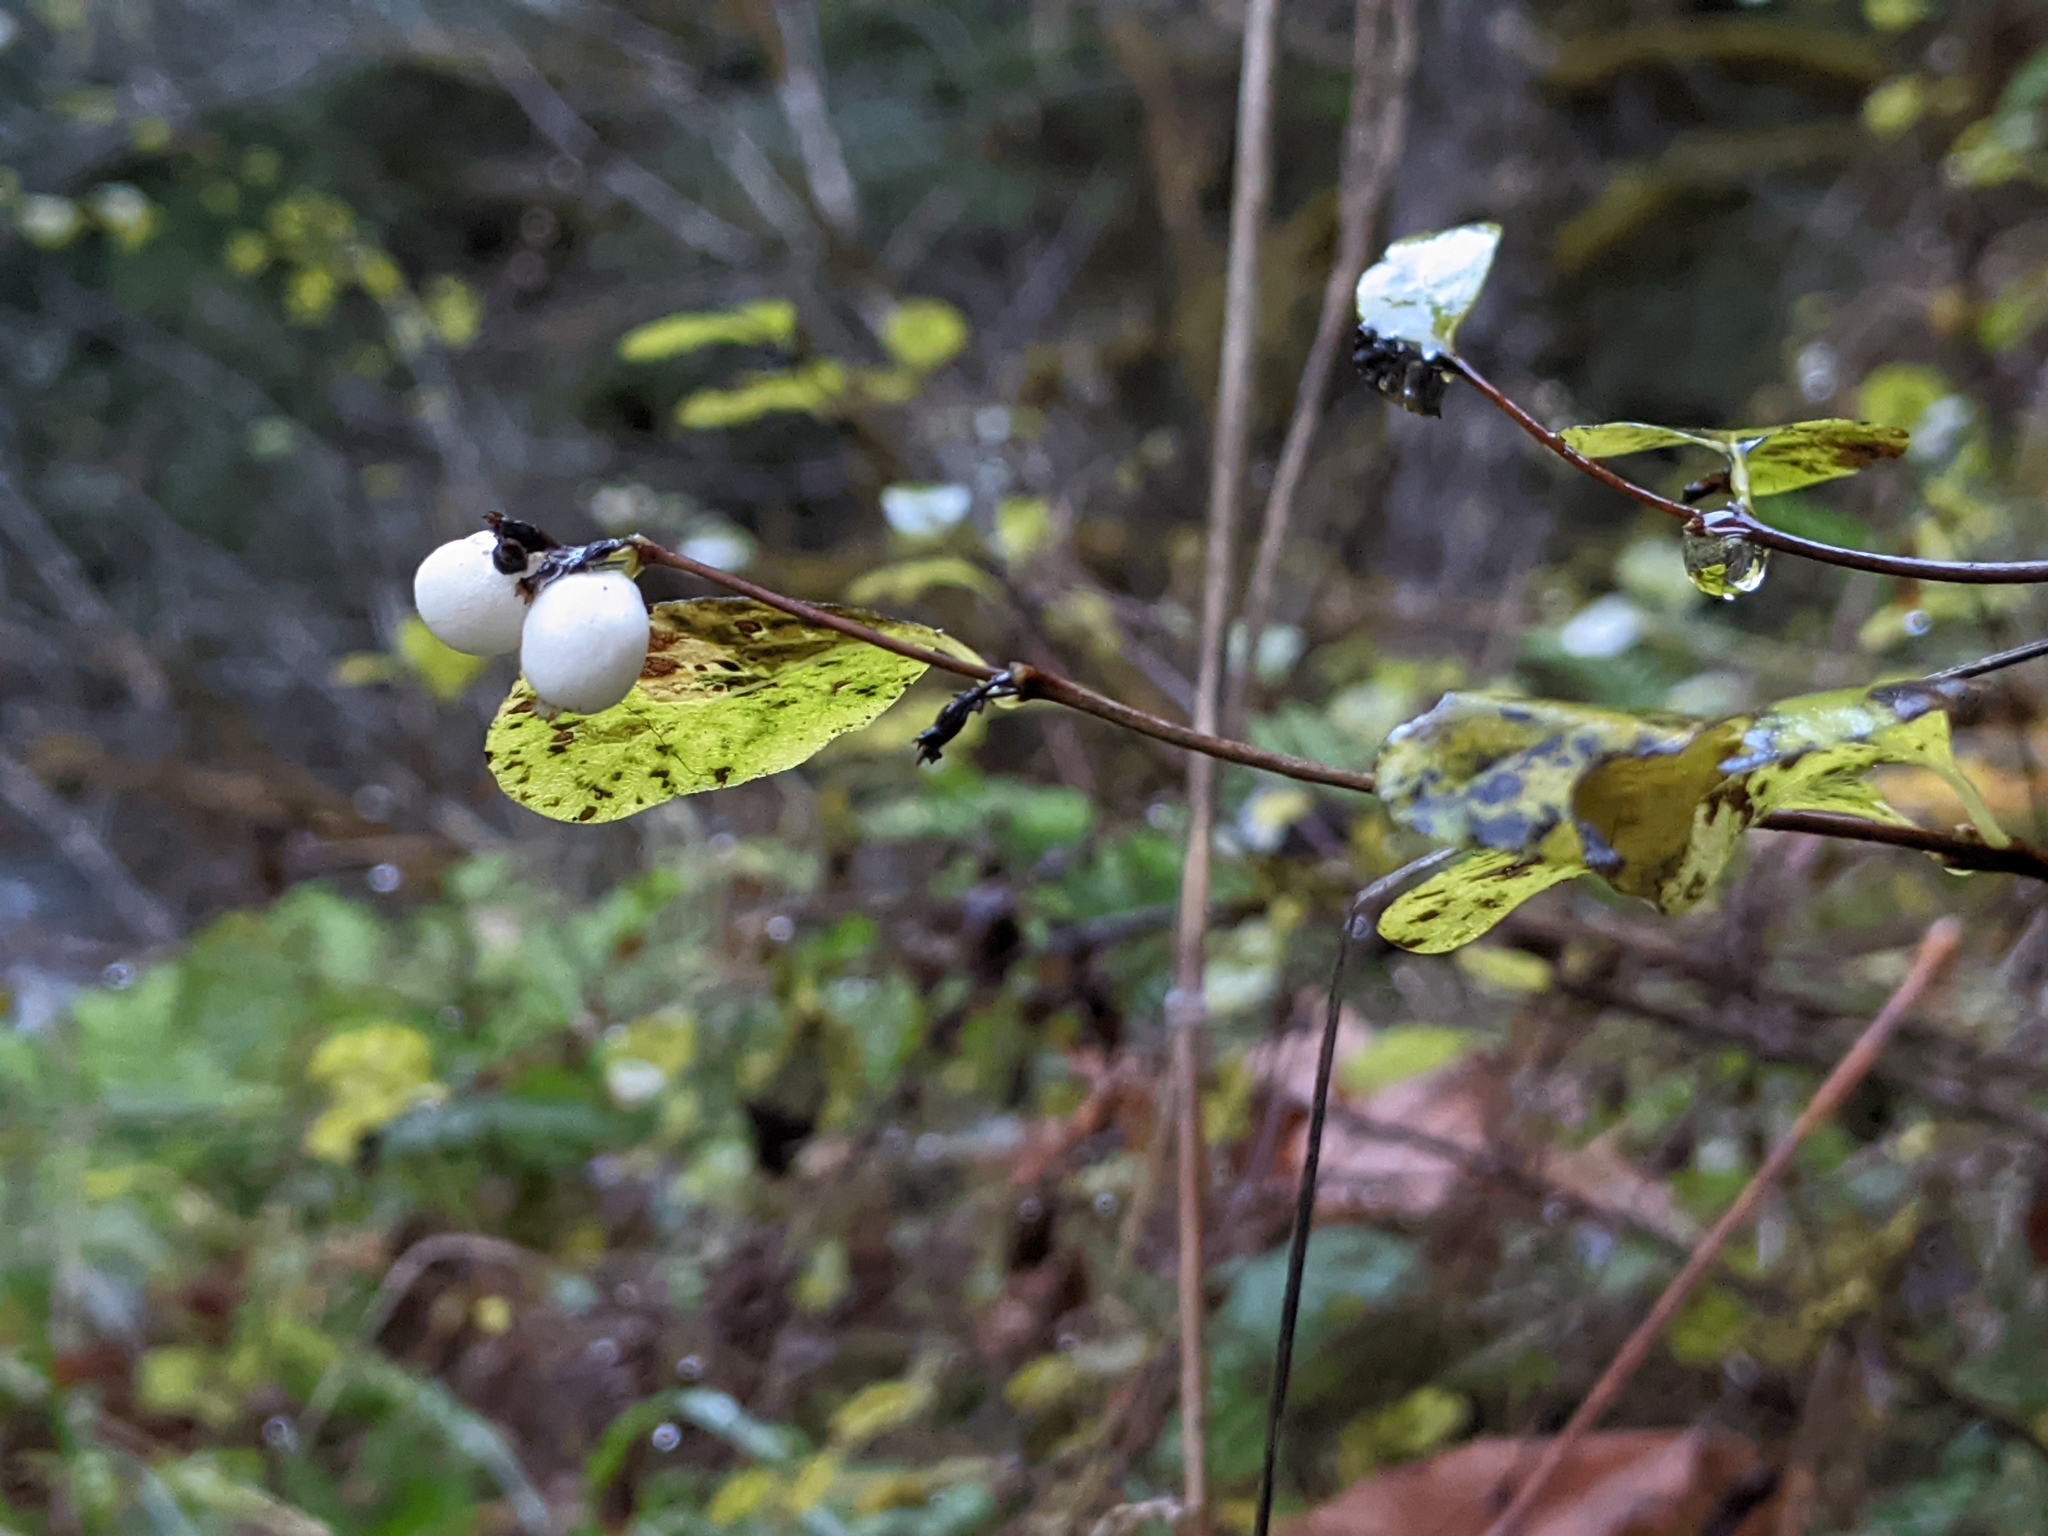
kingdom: Plantae
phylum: Tracheophyta
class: Magnoliopsida
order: Dipsacales
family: Caprifoliaceae
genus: Symphoricarpos
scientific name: Symphoricarpos albus
